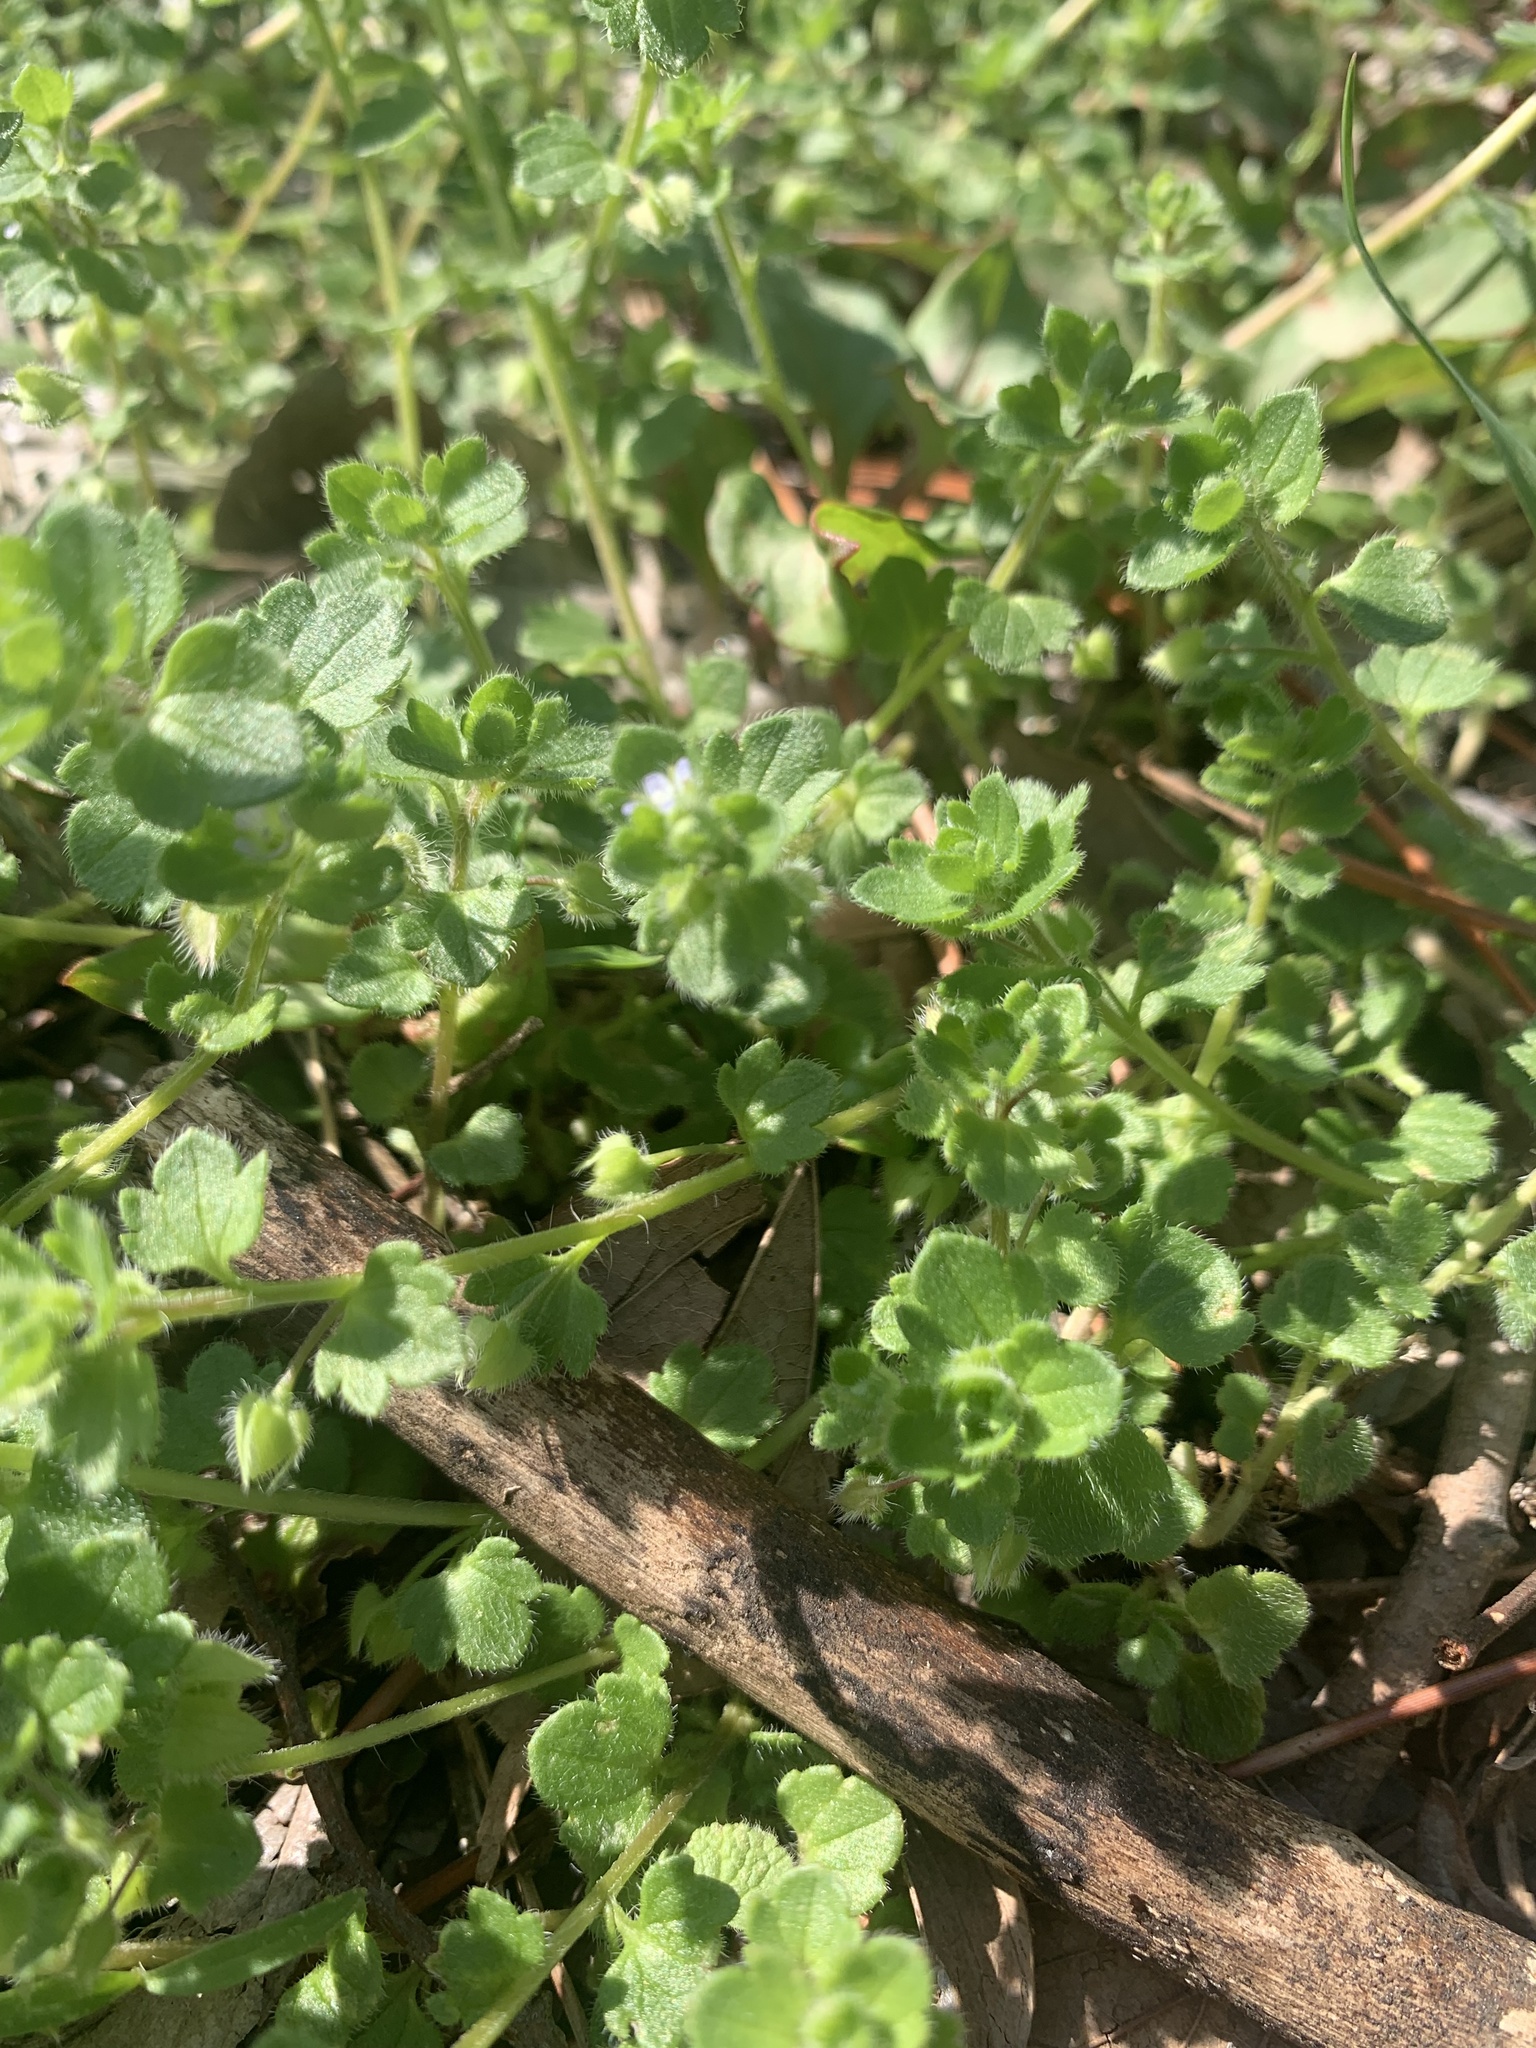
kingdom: Plantae
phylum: Tracheophyta
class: Magnoliopsida
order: Lamiales
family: Plantaginaceae
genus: Veronica
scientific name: Veronica hederifolia
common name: Ivy-leaved speedwell
